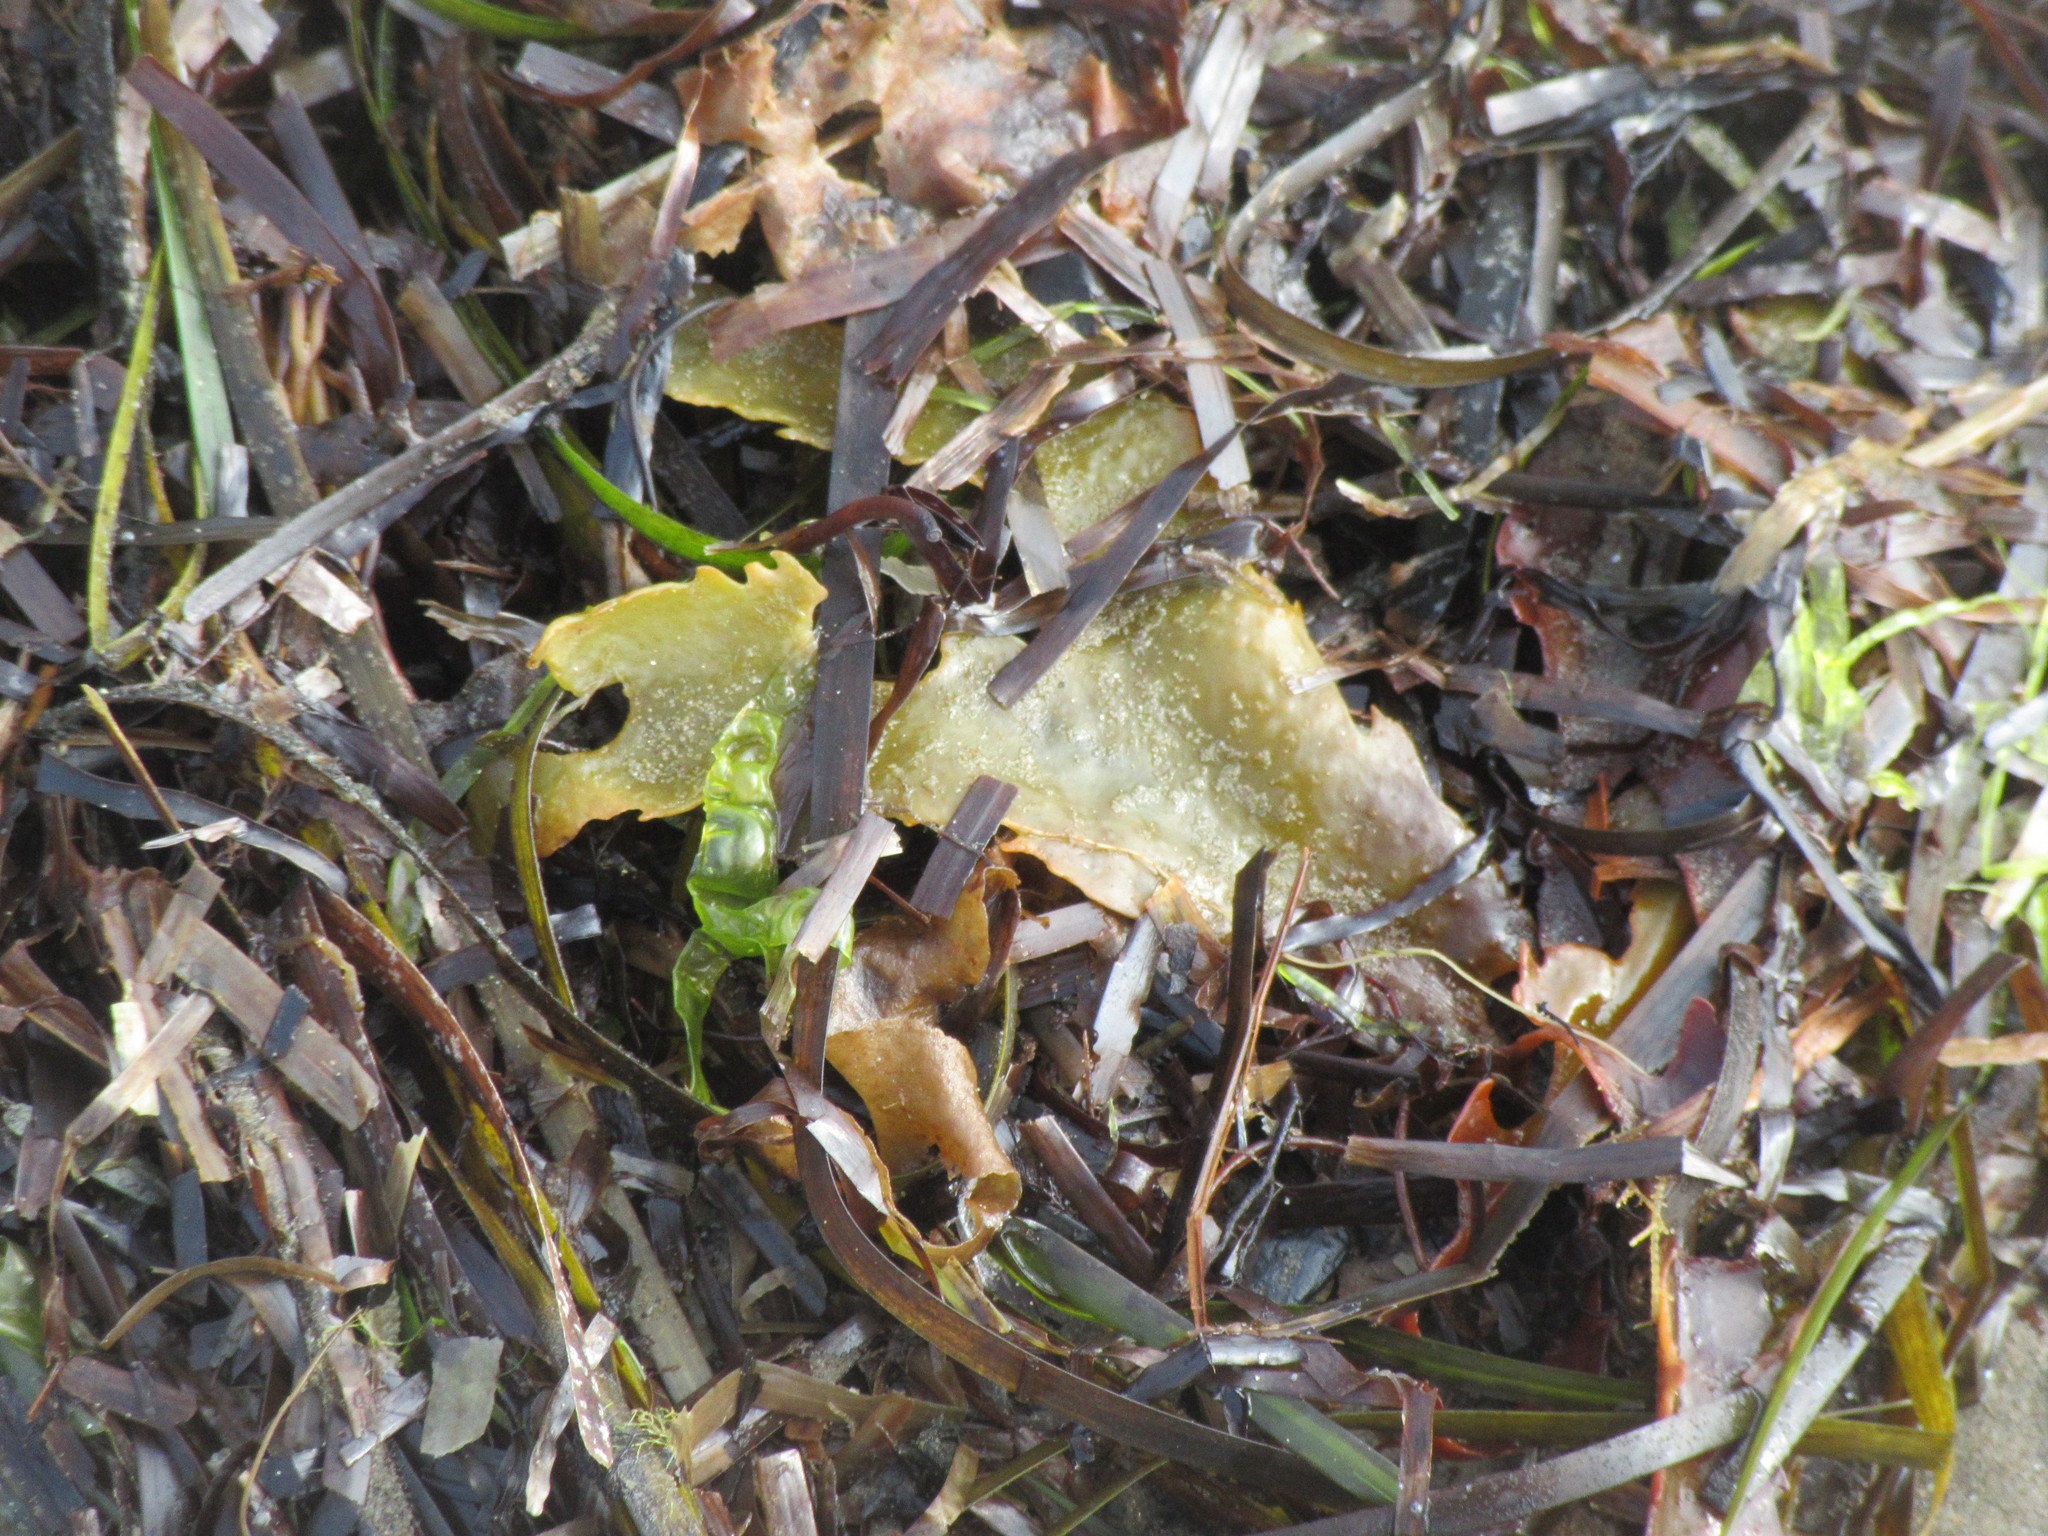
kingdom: Chromista
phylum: Ochrophyta
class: Phaeophyceae
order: Fucales
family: Fucaceae
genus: Fucus
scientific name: Fucus serratus
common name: Toothed wrack
